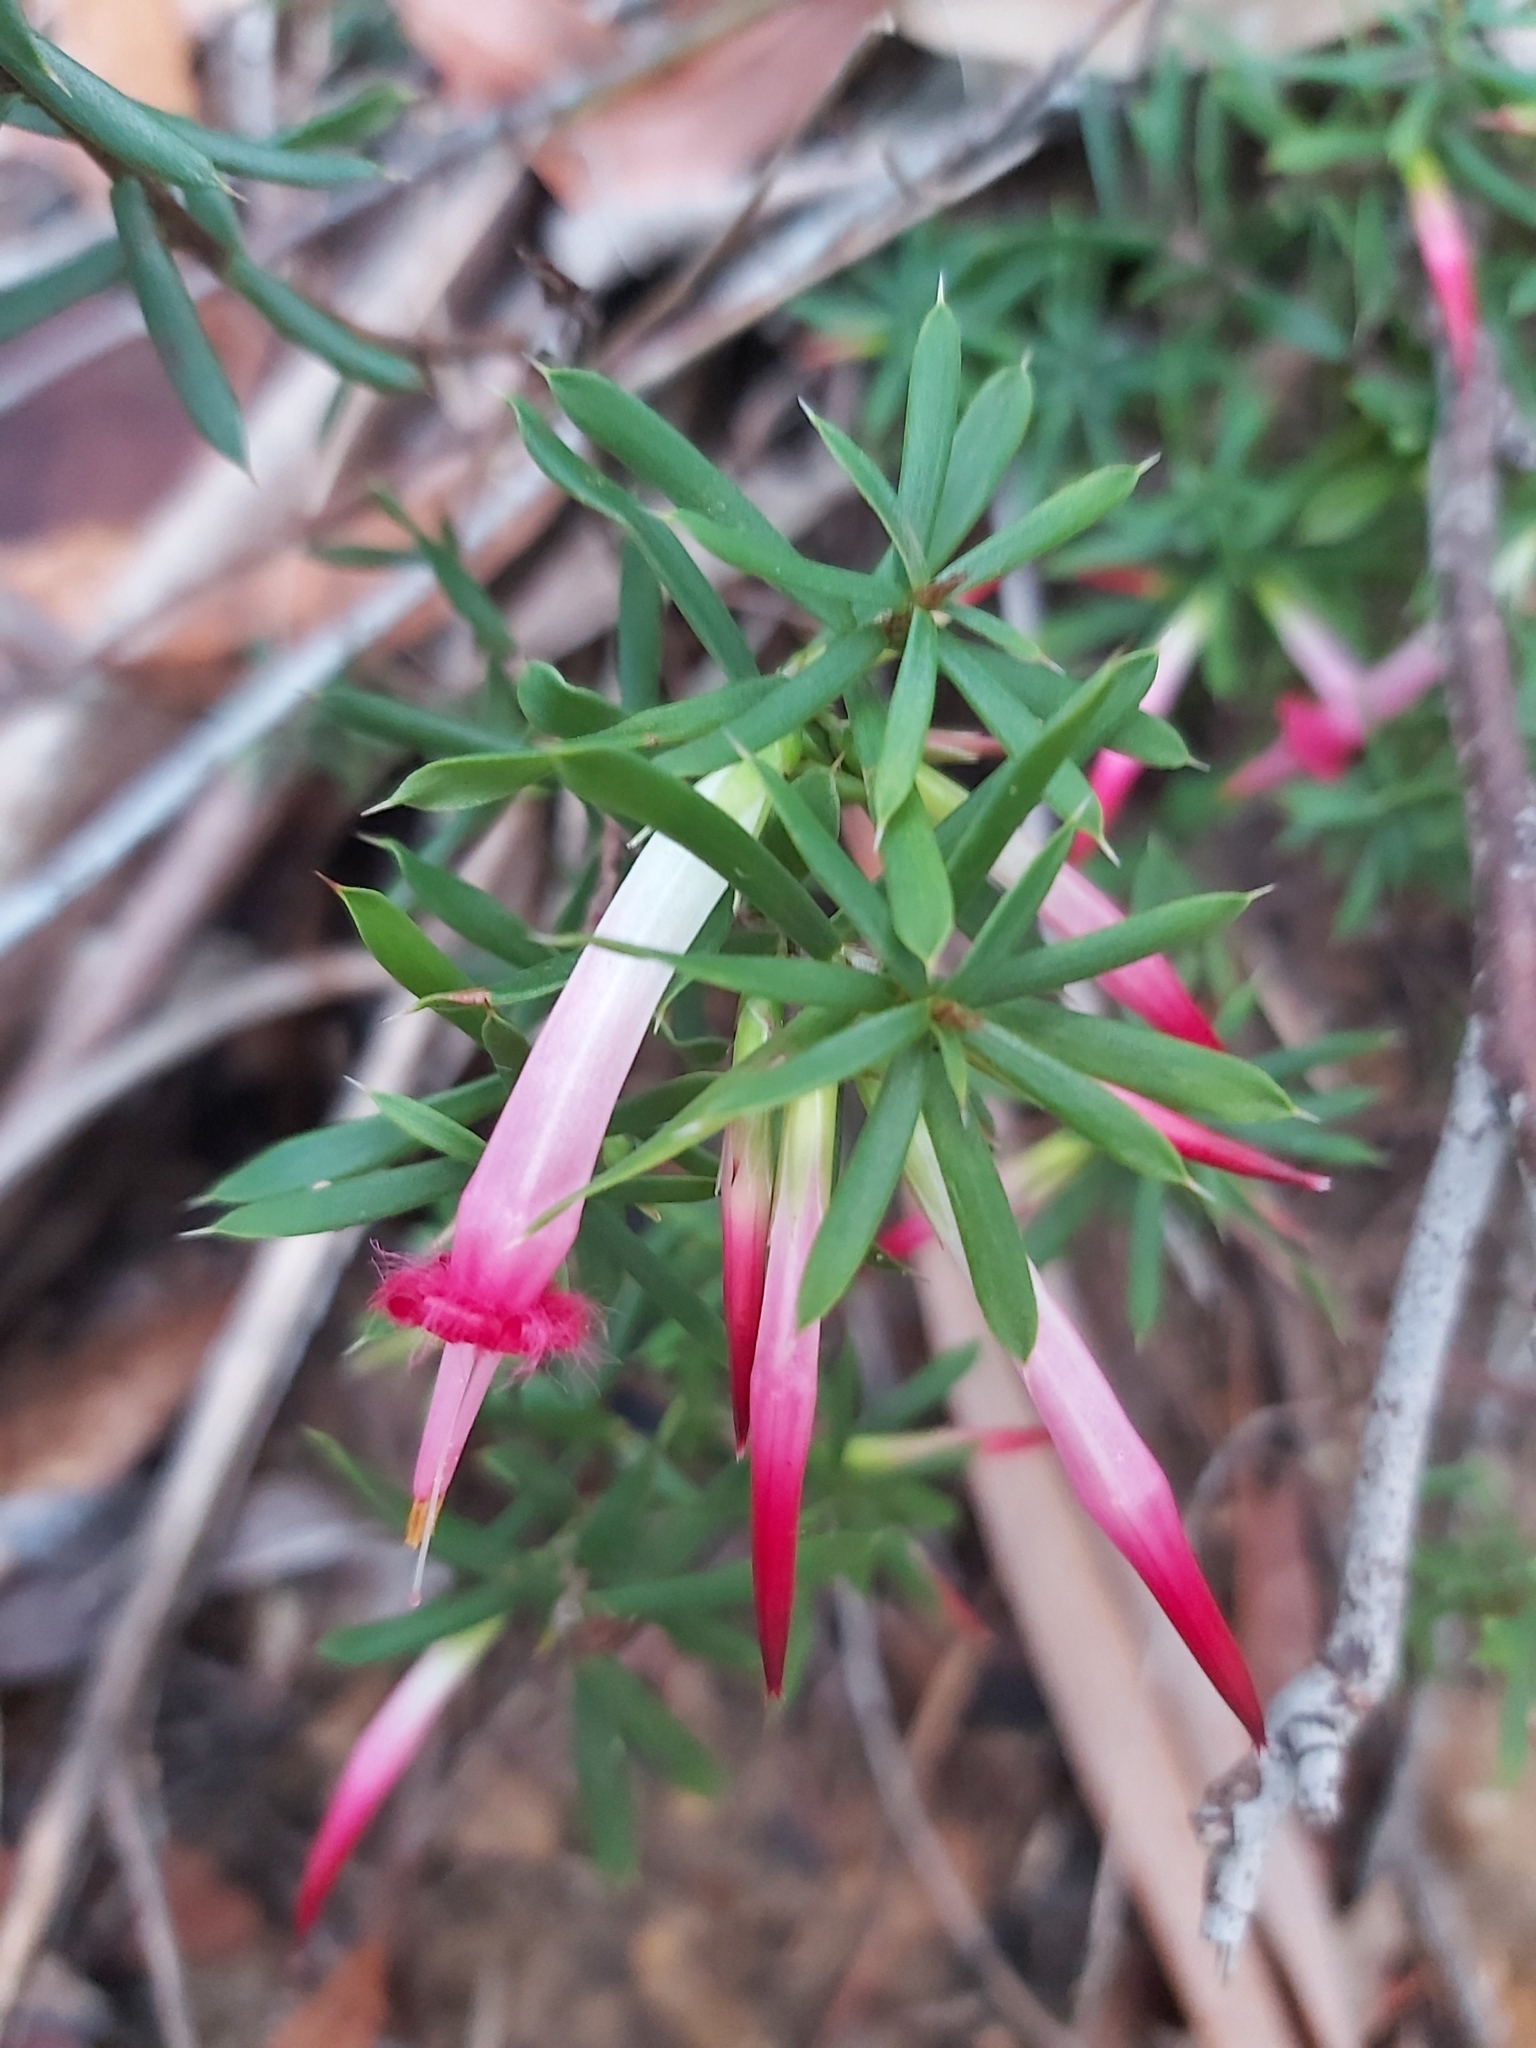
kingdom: Plantae
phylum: Tracheophyta
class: Magnoliopsida
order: Ericales
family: Ericaceae
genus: Styphelia
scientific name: Styphelia tubiflora
